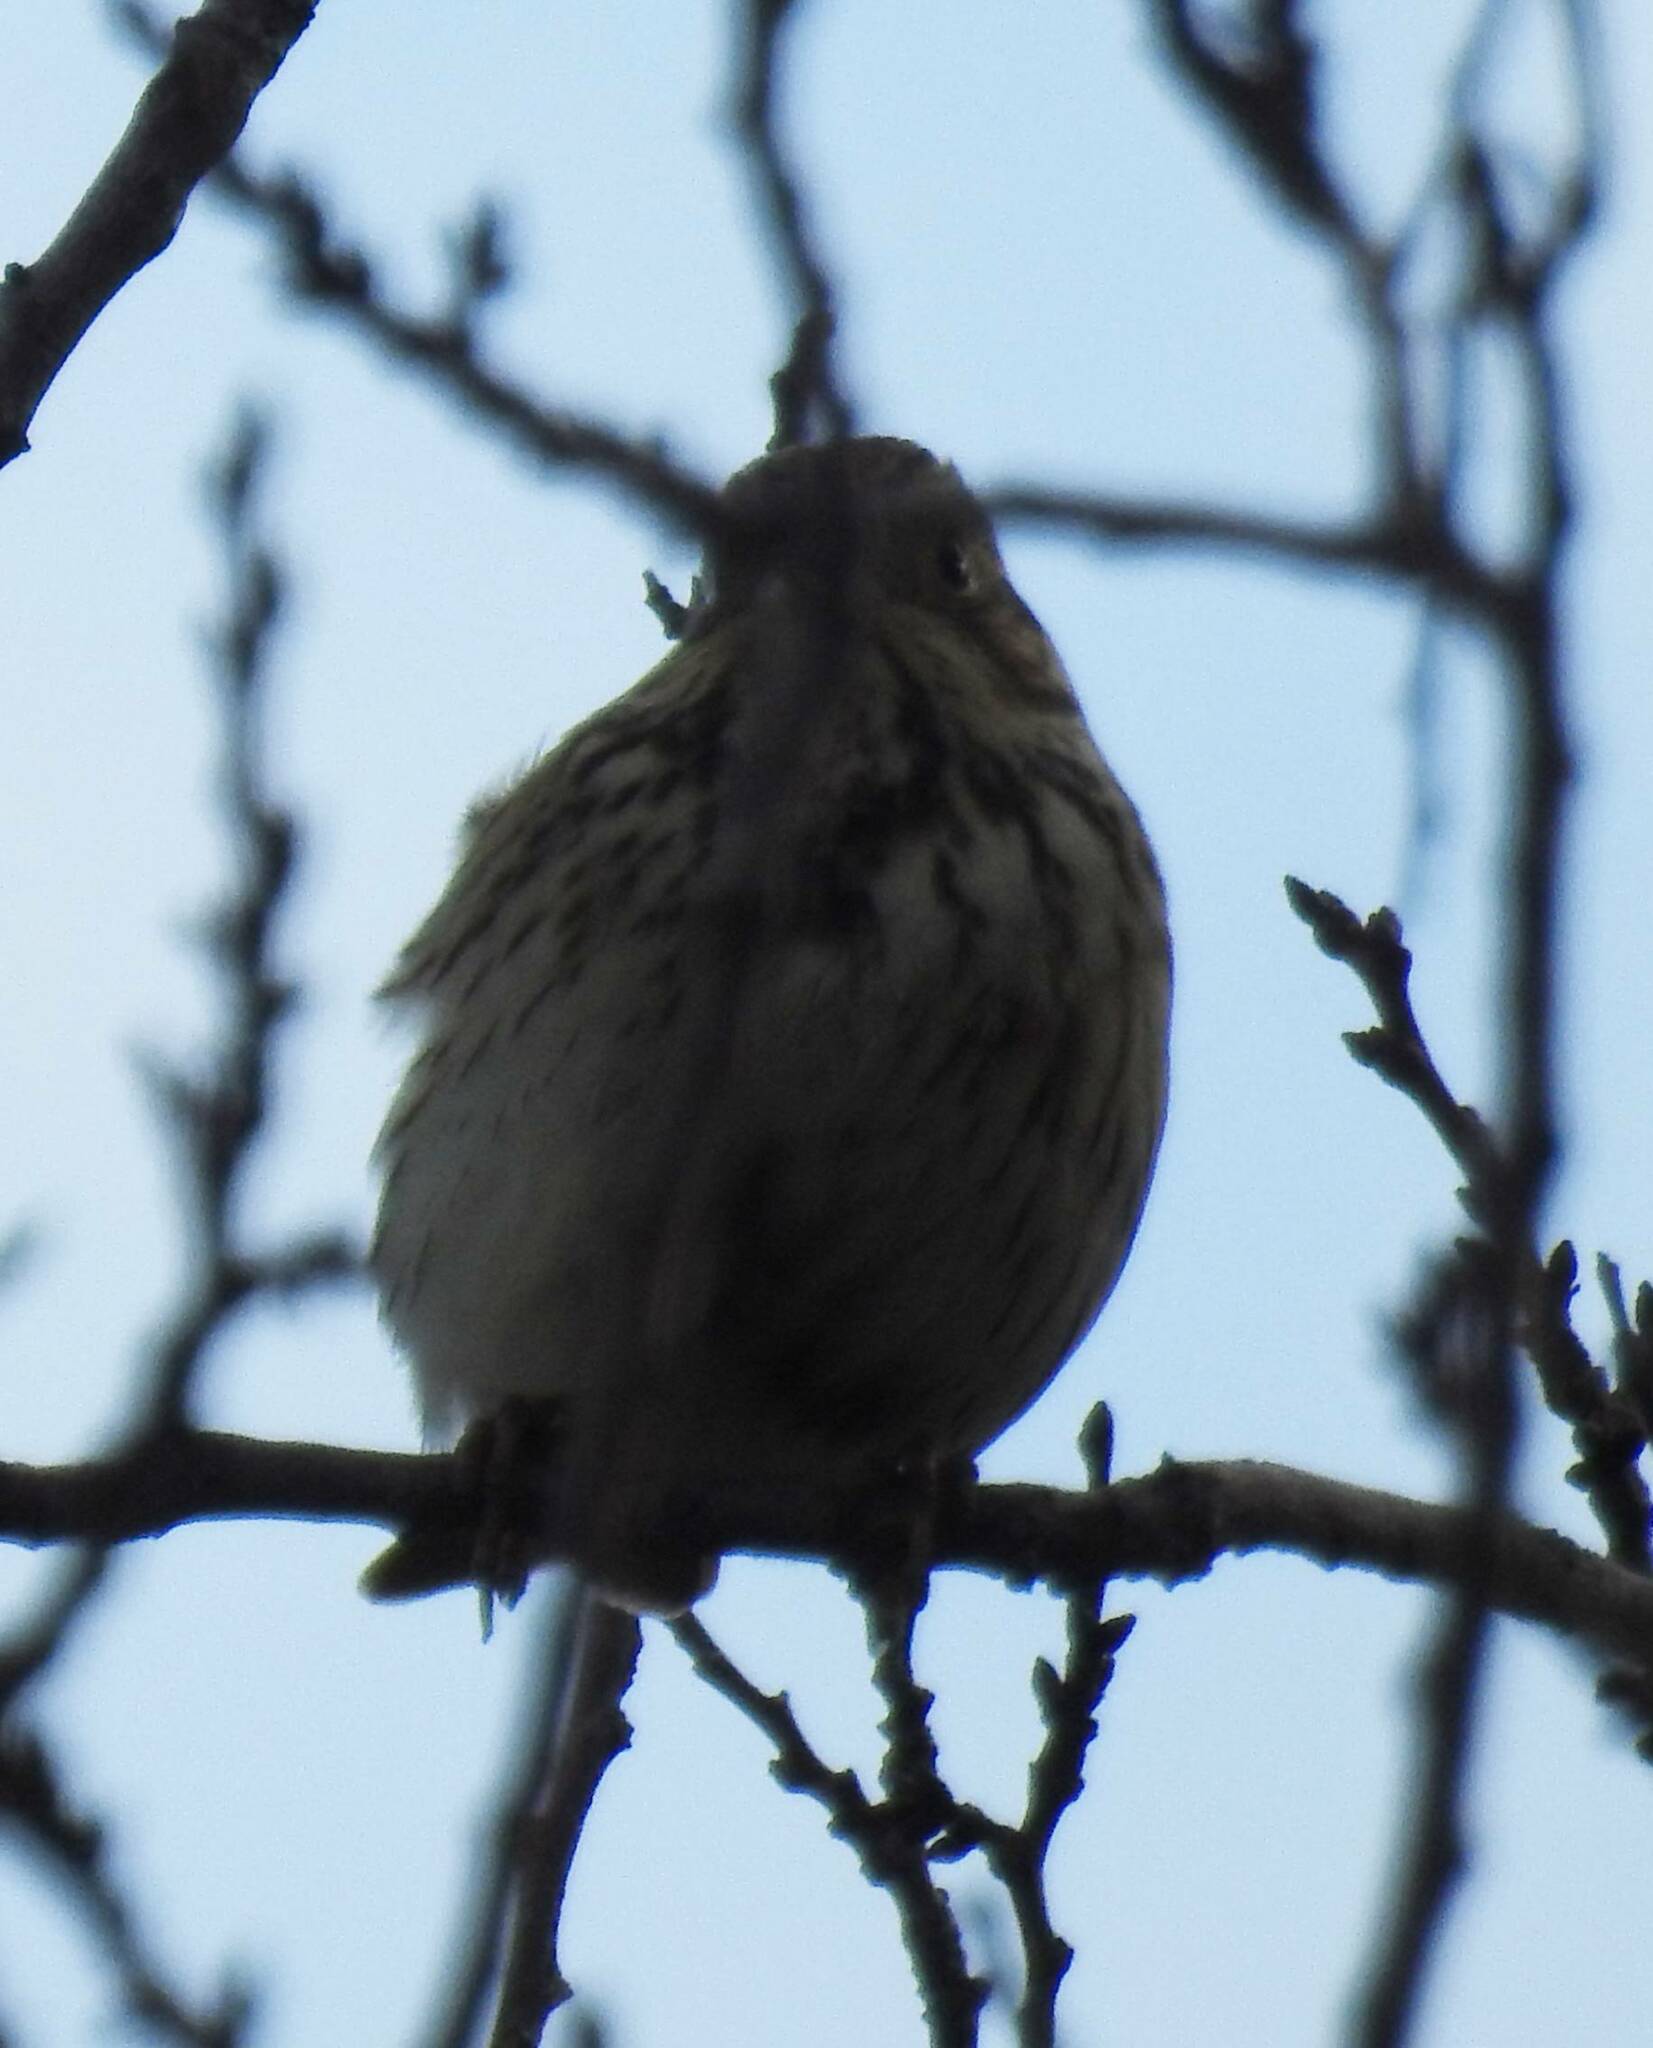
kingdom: Animalia
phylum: Chordata
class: Aves
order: Passeriformes
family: Emberizidae
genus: Emberiza
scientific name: Emberiza calandra
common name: Corn bunting
